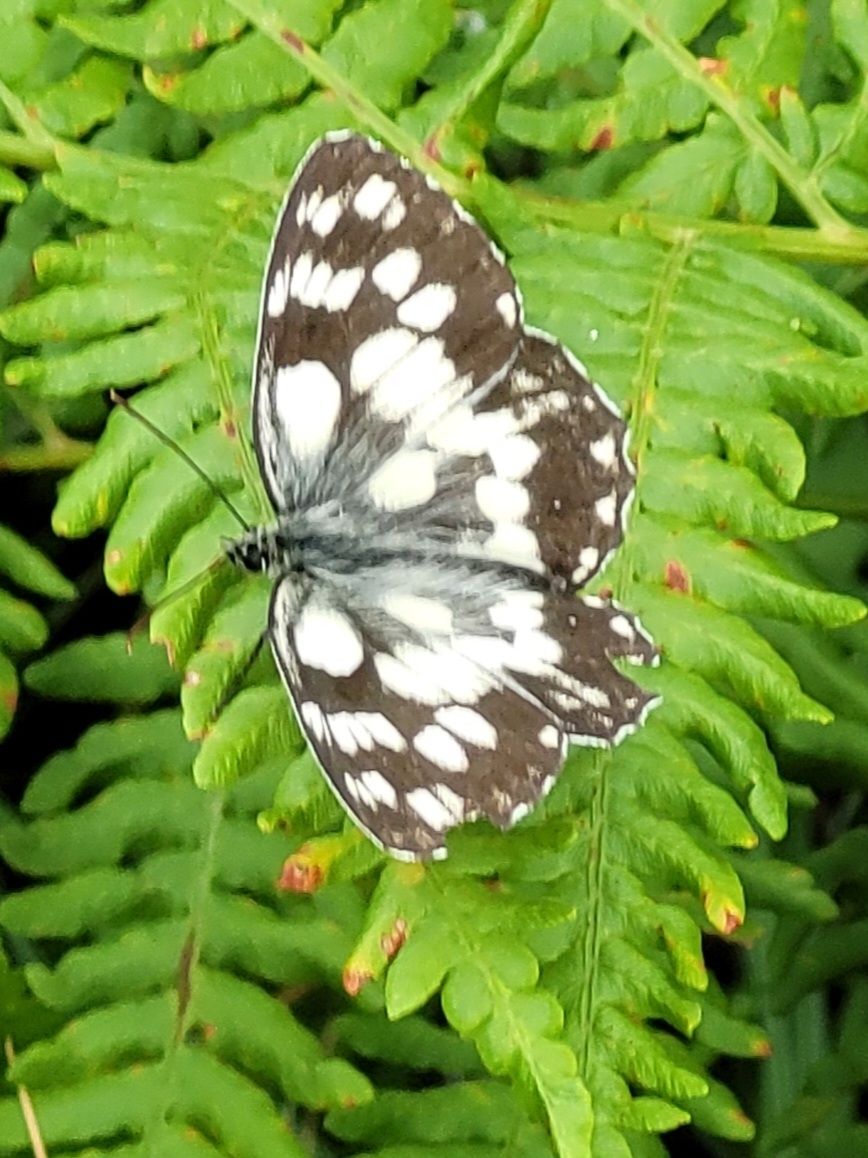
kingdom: Animalia
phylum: Arthropoda
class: Insecta
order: Lepidoptera
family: Nymphalidae
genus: Melanargia
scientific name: Melanargia galathea
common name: Marbled white
